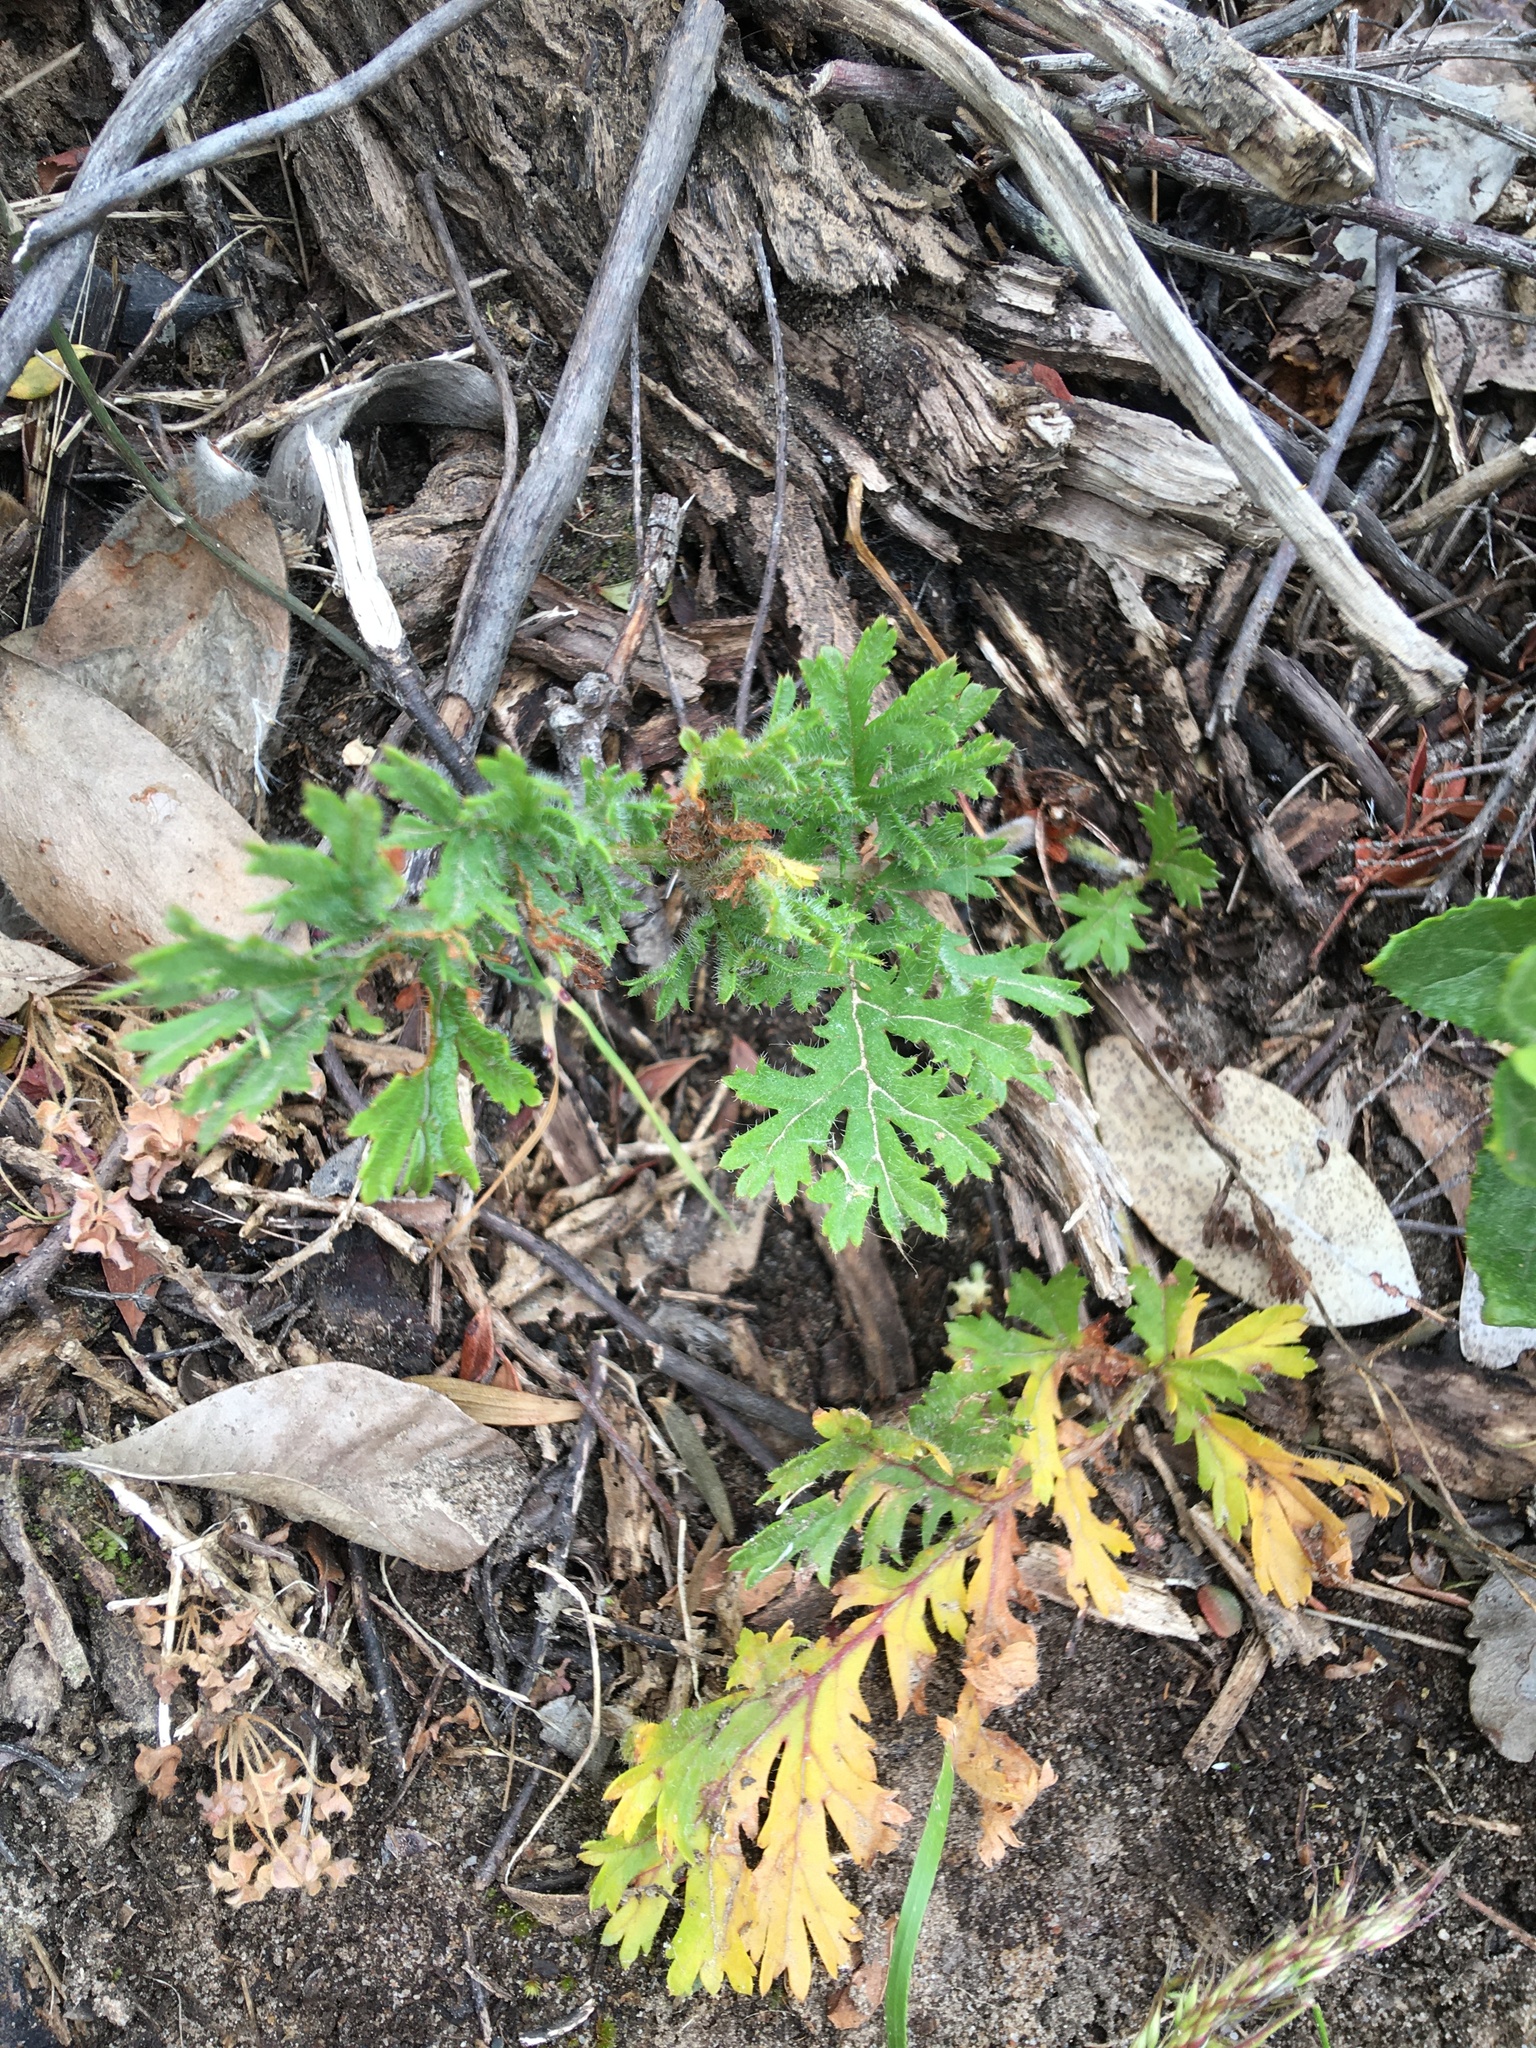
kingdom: Plantae
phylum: Tracheophyta
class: Magnoliopsida
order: Geraniales
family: Geraniaceae
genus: Pelargonium
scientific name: Pelargonium triste
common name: Night-scent pelargonium
